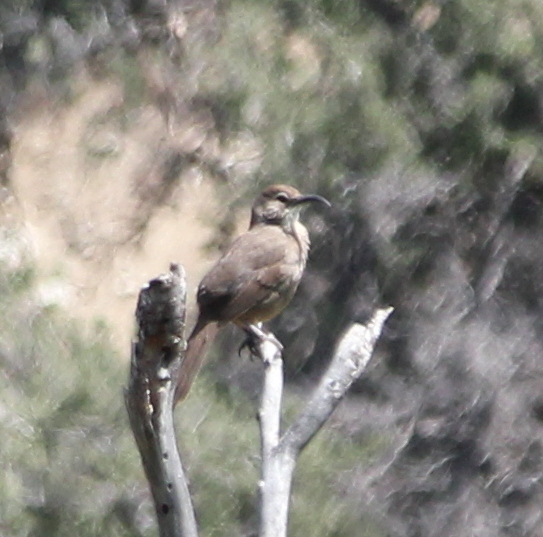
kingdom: Animalia
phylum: Chordata
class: Aves
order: Passeriformes
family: Mimidae
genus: Toxostoma
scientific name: Toxostoma redivivum
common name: California thrasher
